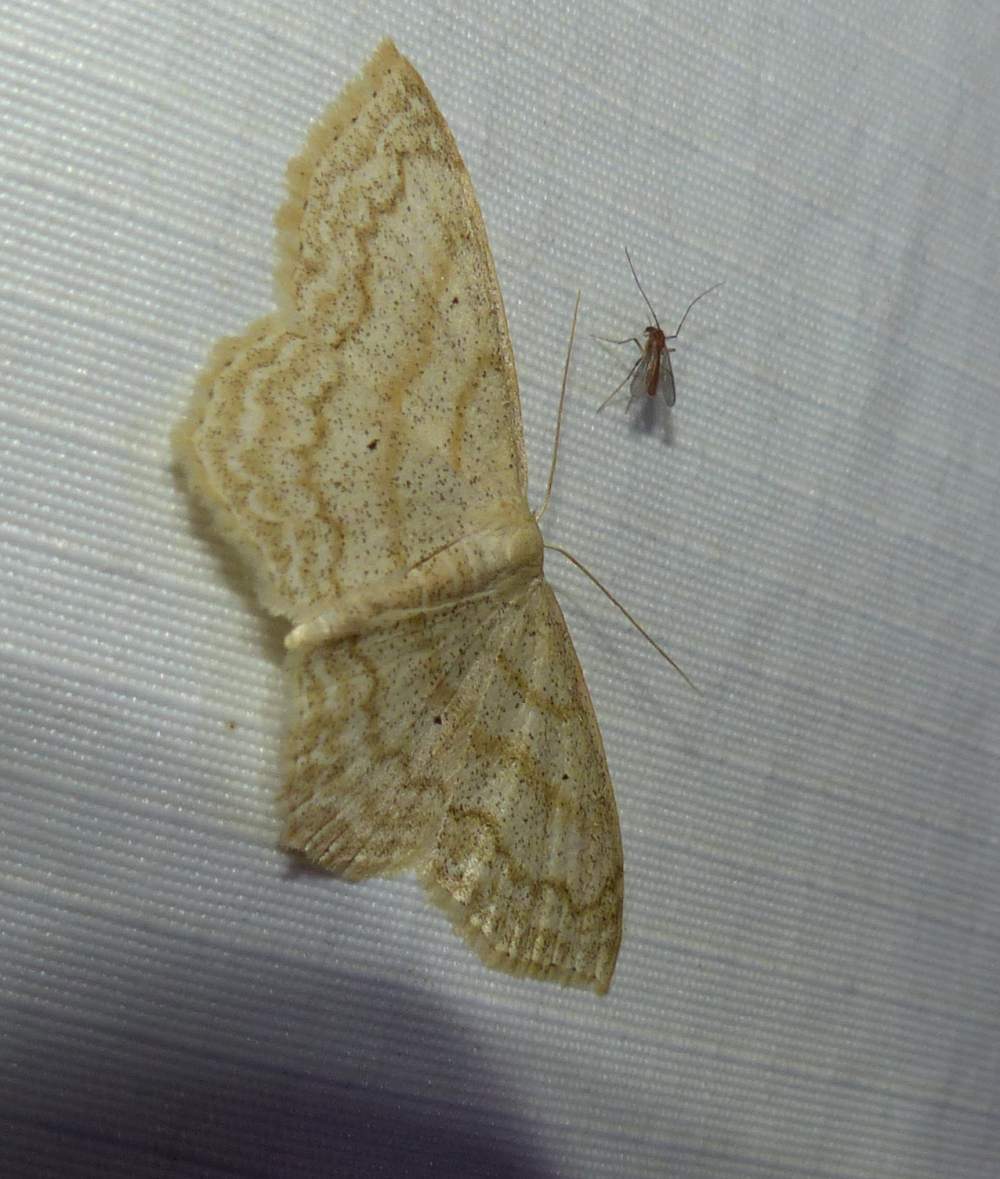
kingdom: Animalia
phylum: Arthropoda
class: Insecta
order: Lepidoptera
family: Geometridae
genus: Scopula
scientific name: Scopula limboundata
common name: Large lace border
